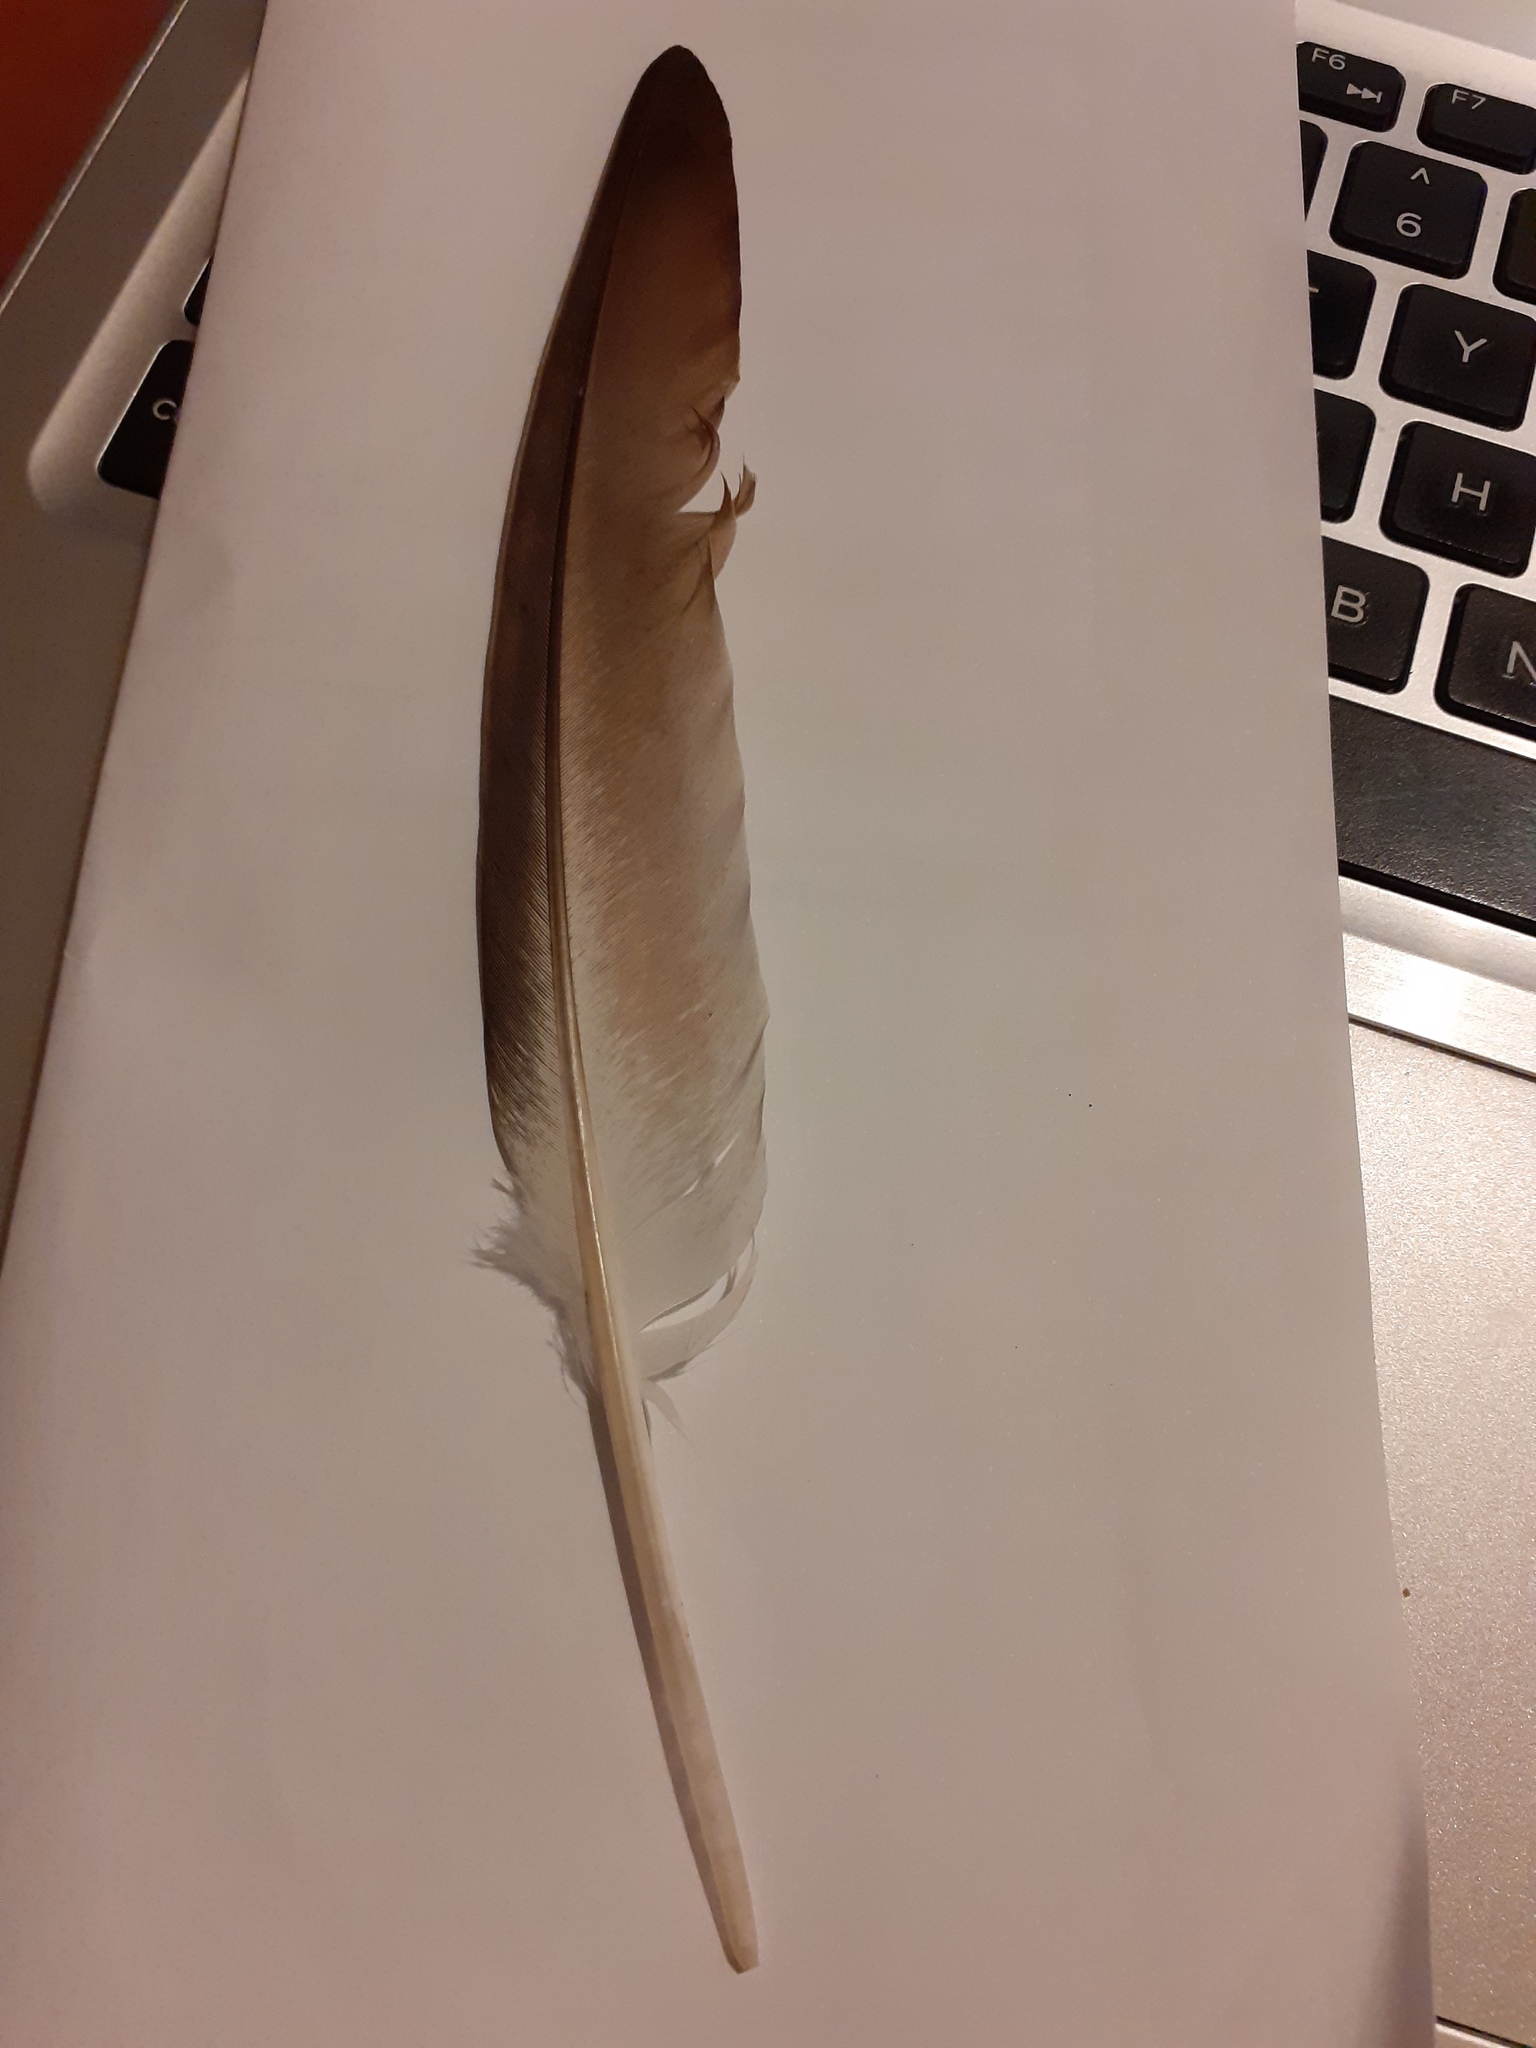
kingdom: Animalia
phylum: Chordata
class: Aves
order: Columbiformes
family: Columbidae
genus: Columba
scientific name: Columba livia
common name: Rock pigeon
